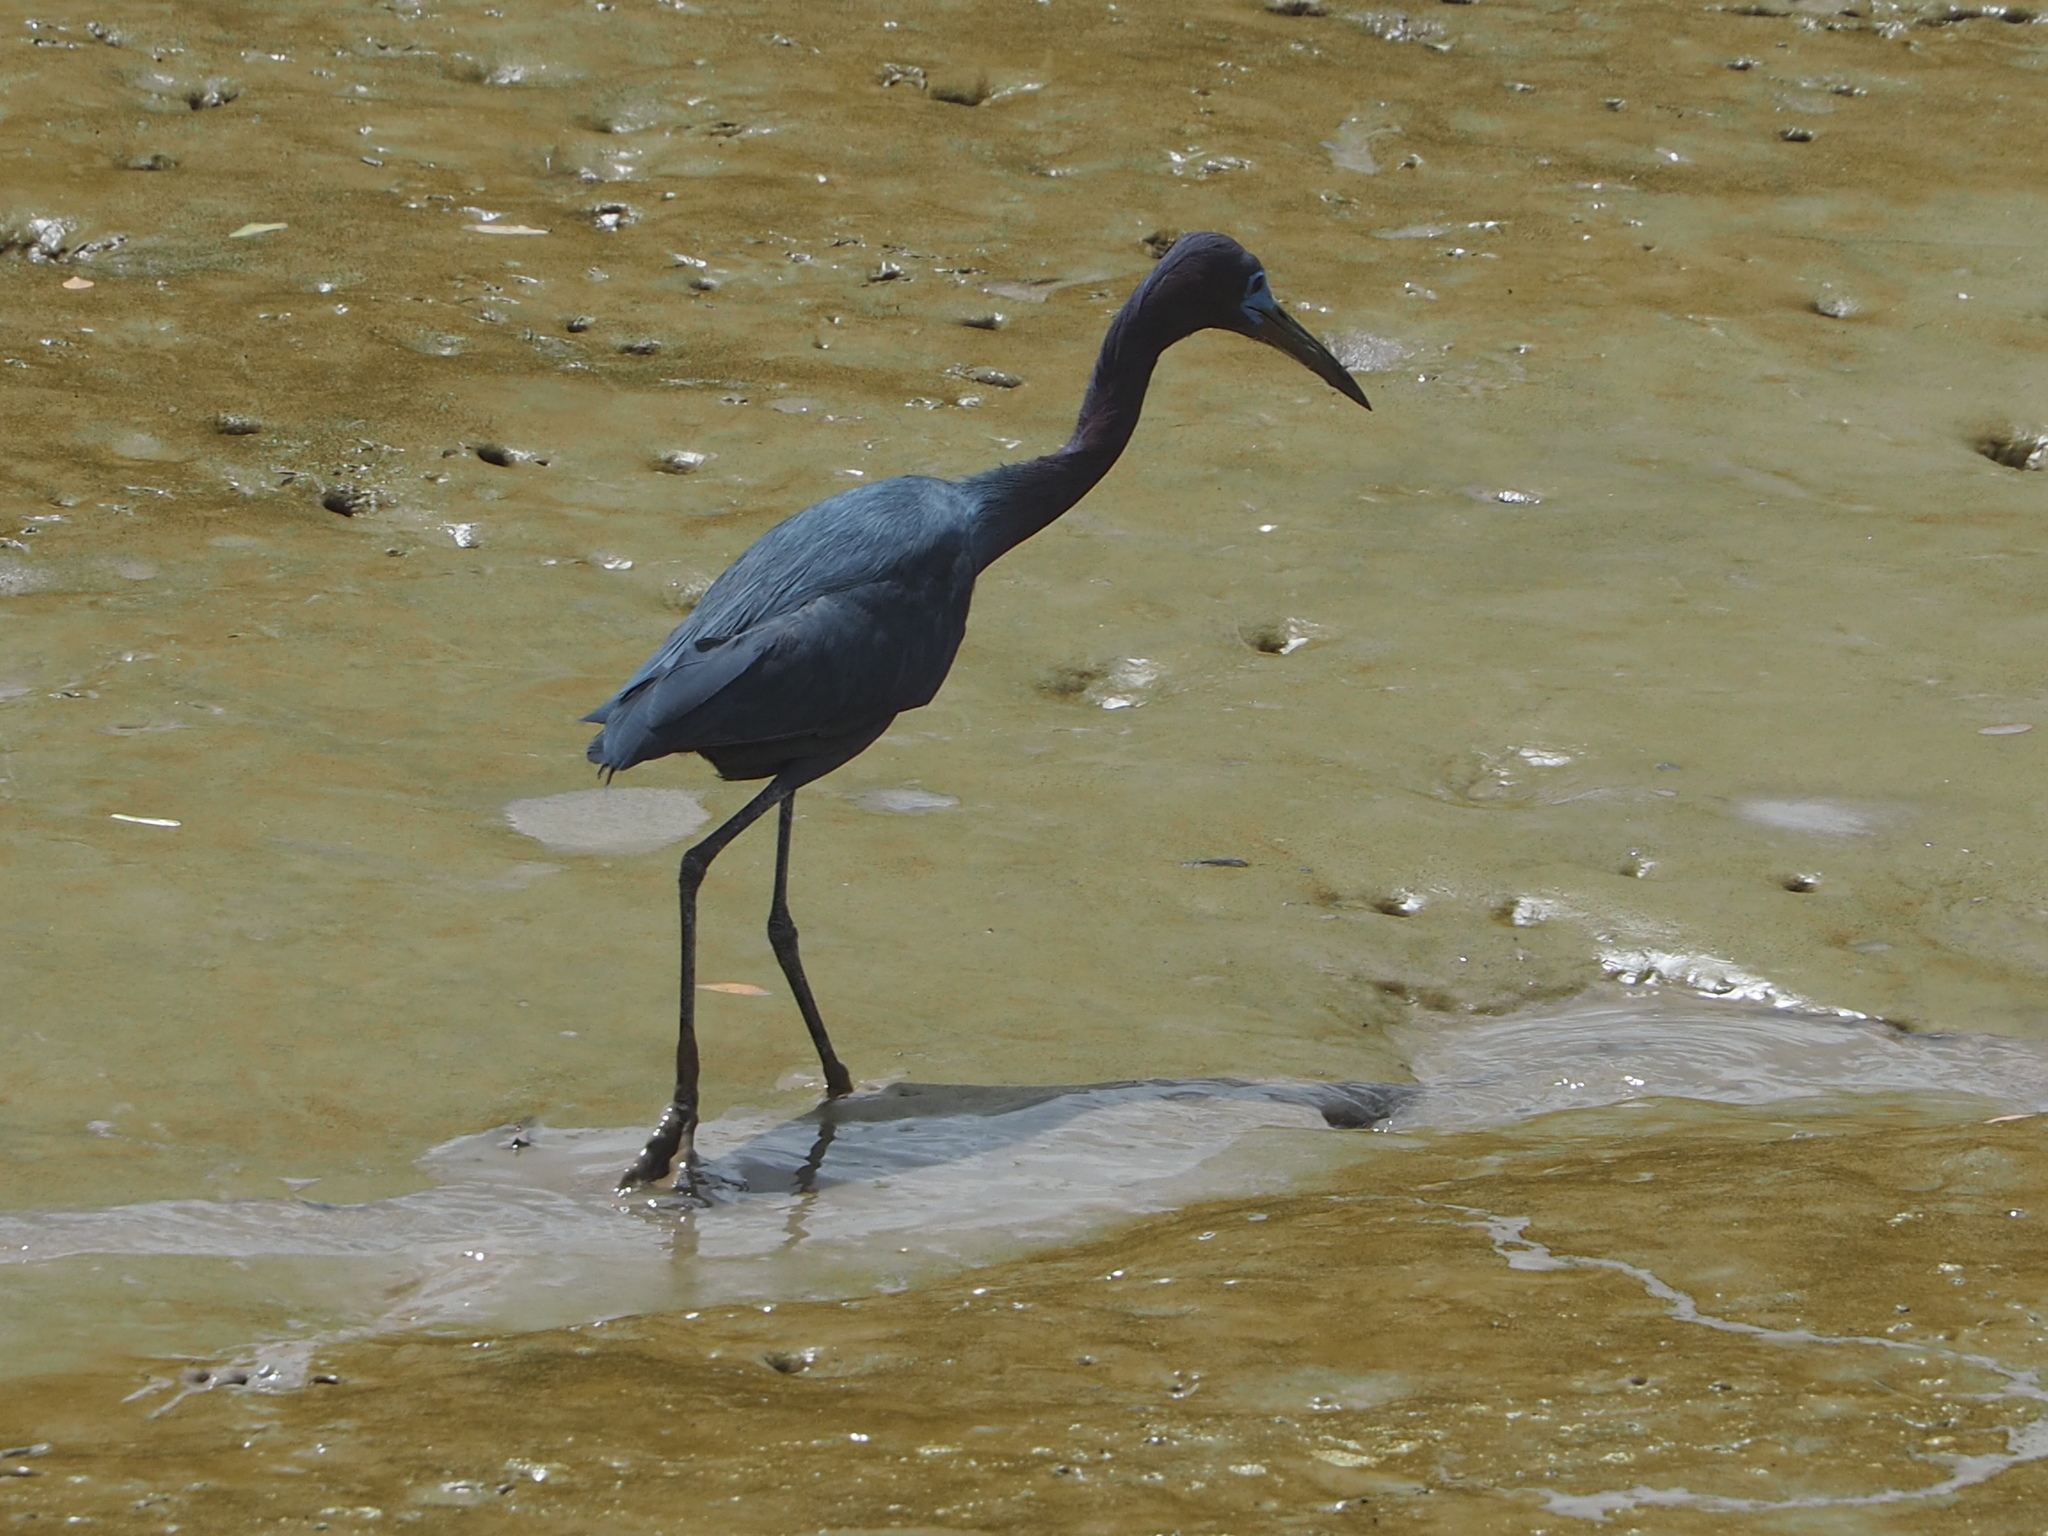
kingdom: Animalia
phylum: Chordata
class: Aves
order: Pelecaniformes
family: Ardeidae
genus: Egretta
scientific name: Egretta caerulea
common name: Little blue heron
